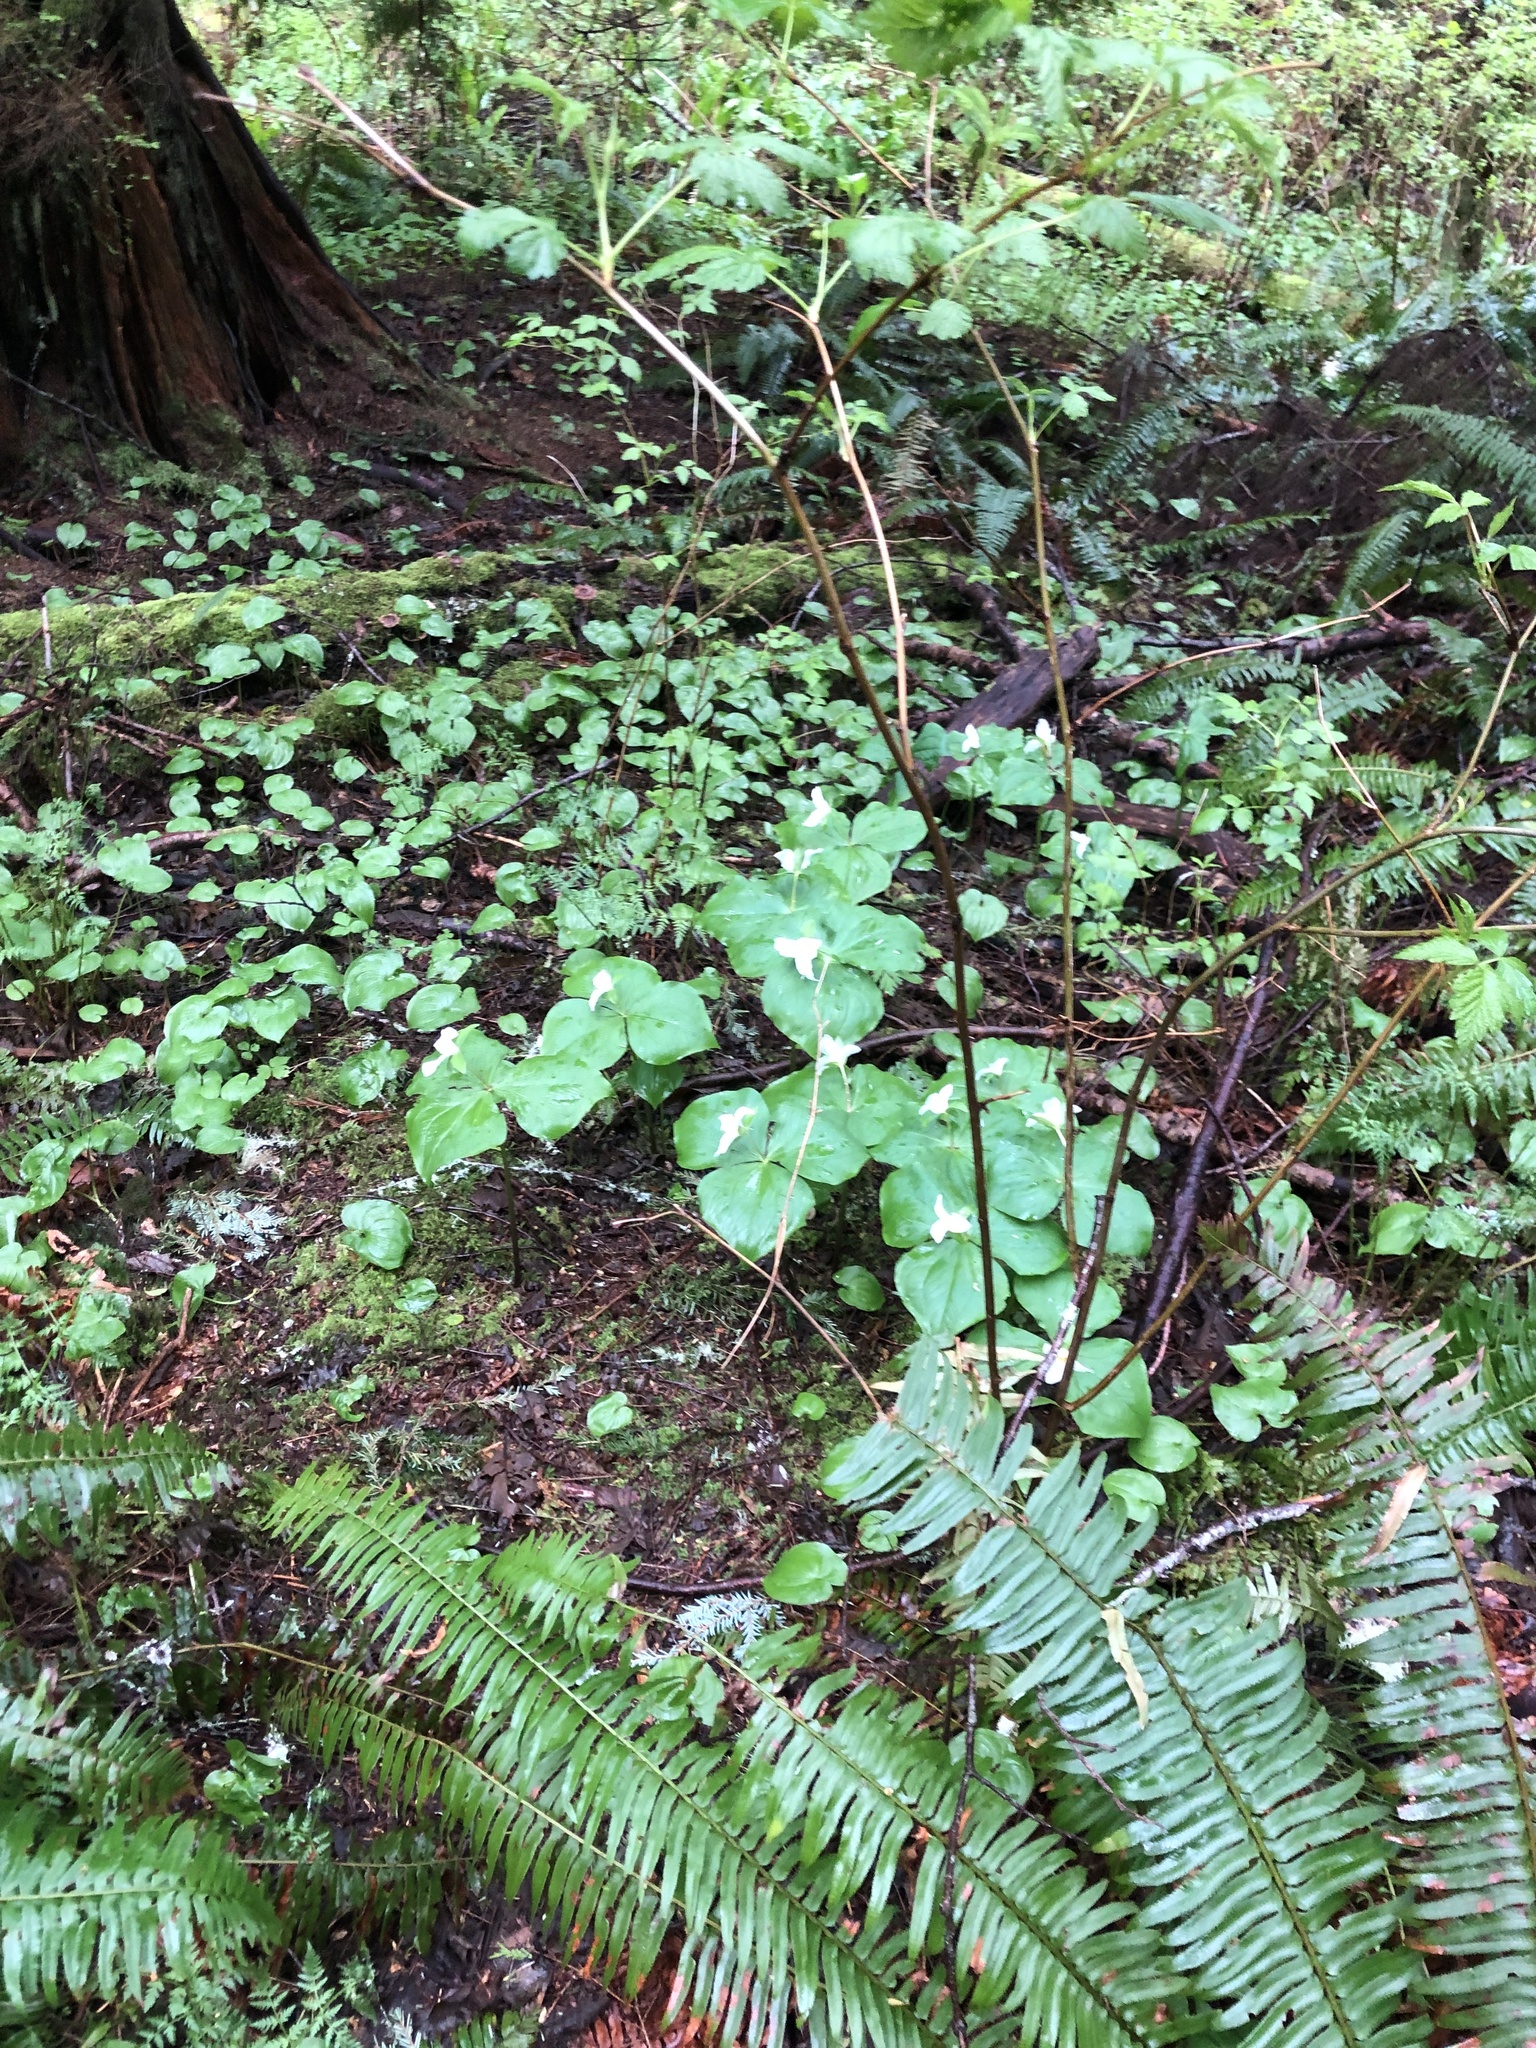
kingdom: Plantae
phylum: Tracheophyta
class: Liliopsida
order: Liliales
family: Melanthiaceae
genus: Trillium
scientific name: Trillium ovatum
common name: Pacific trillium
